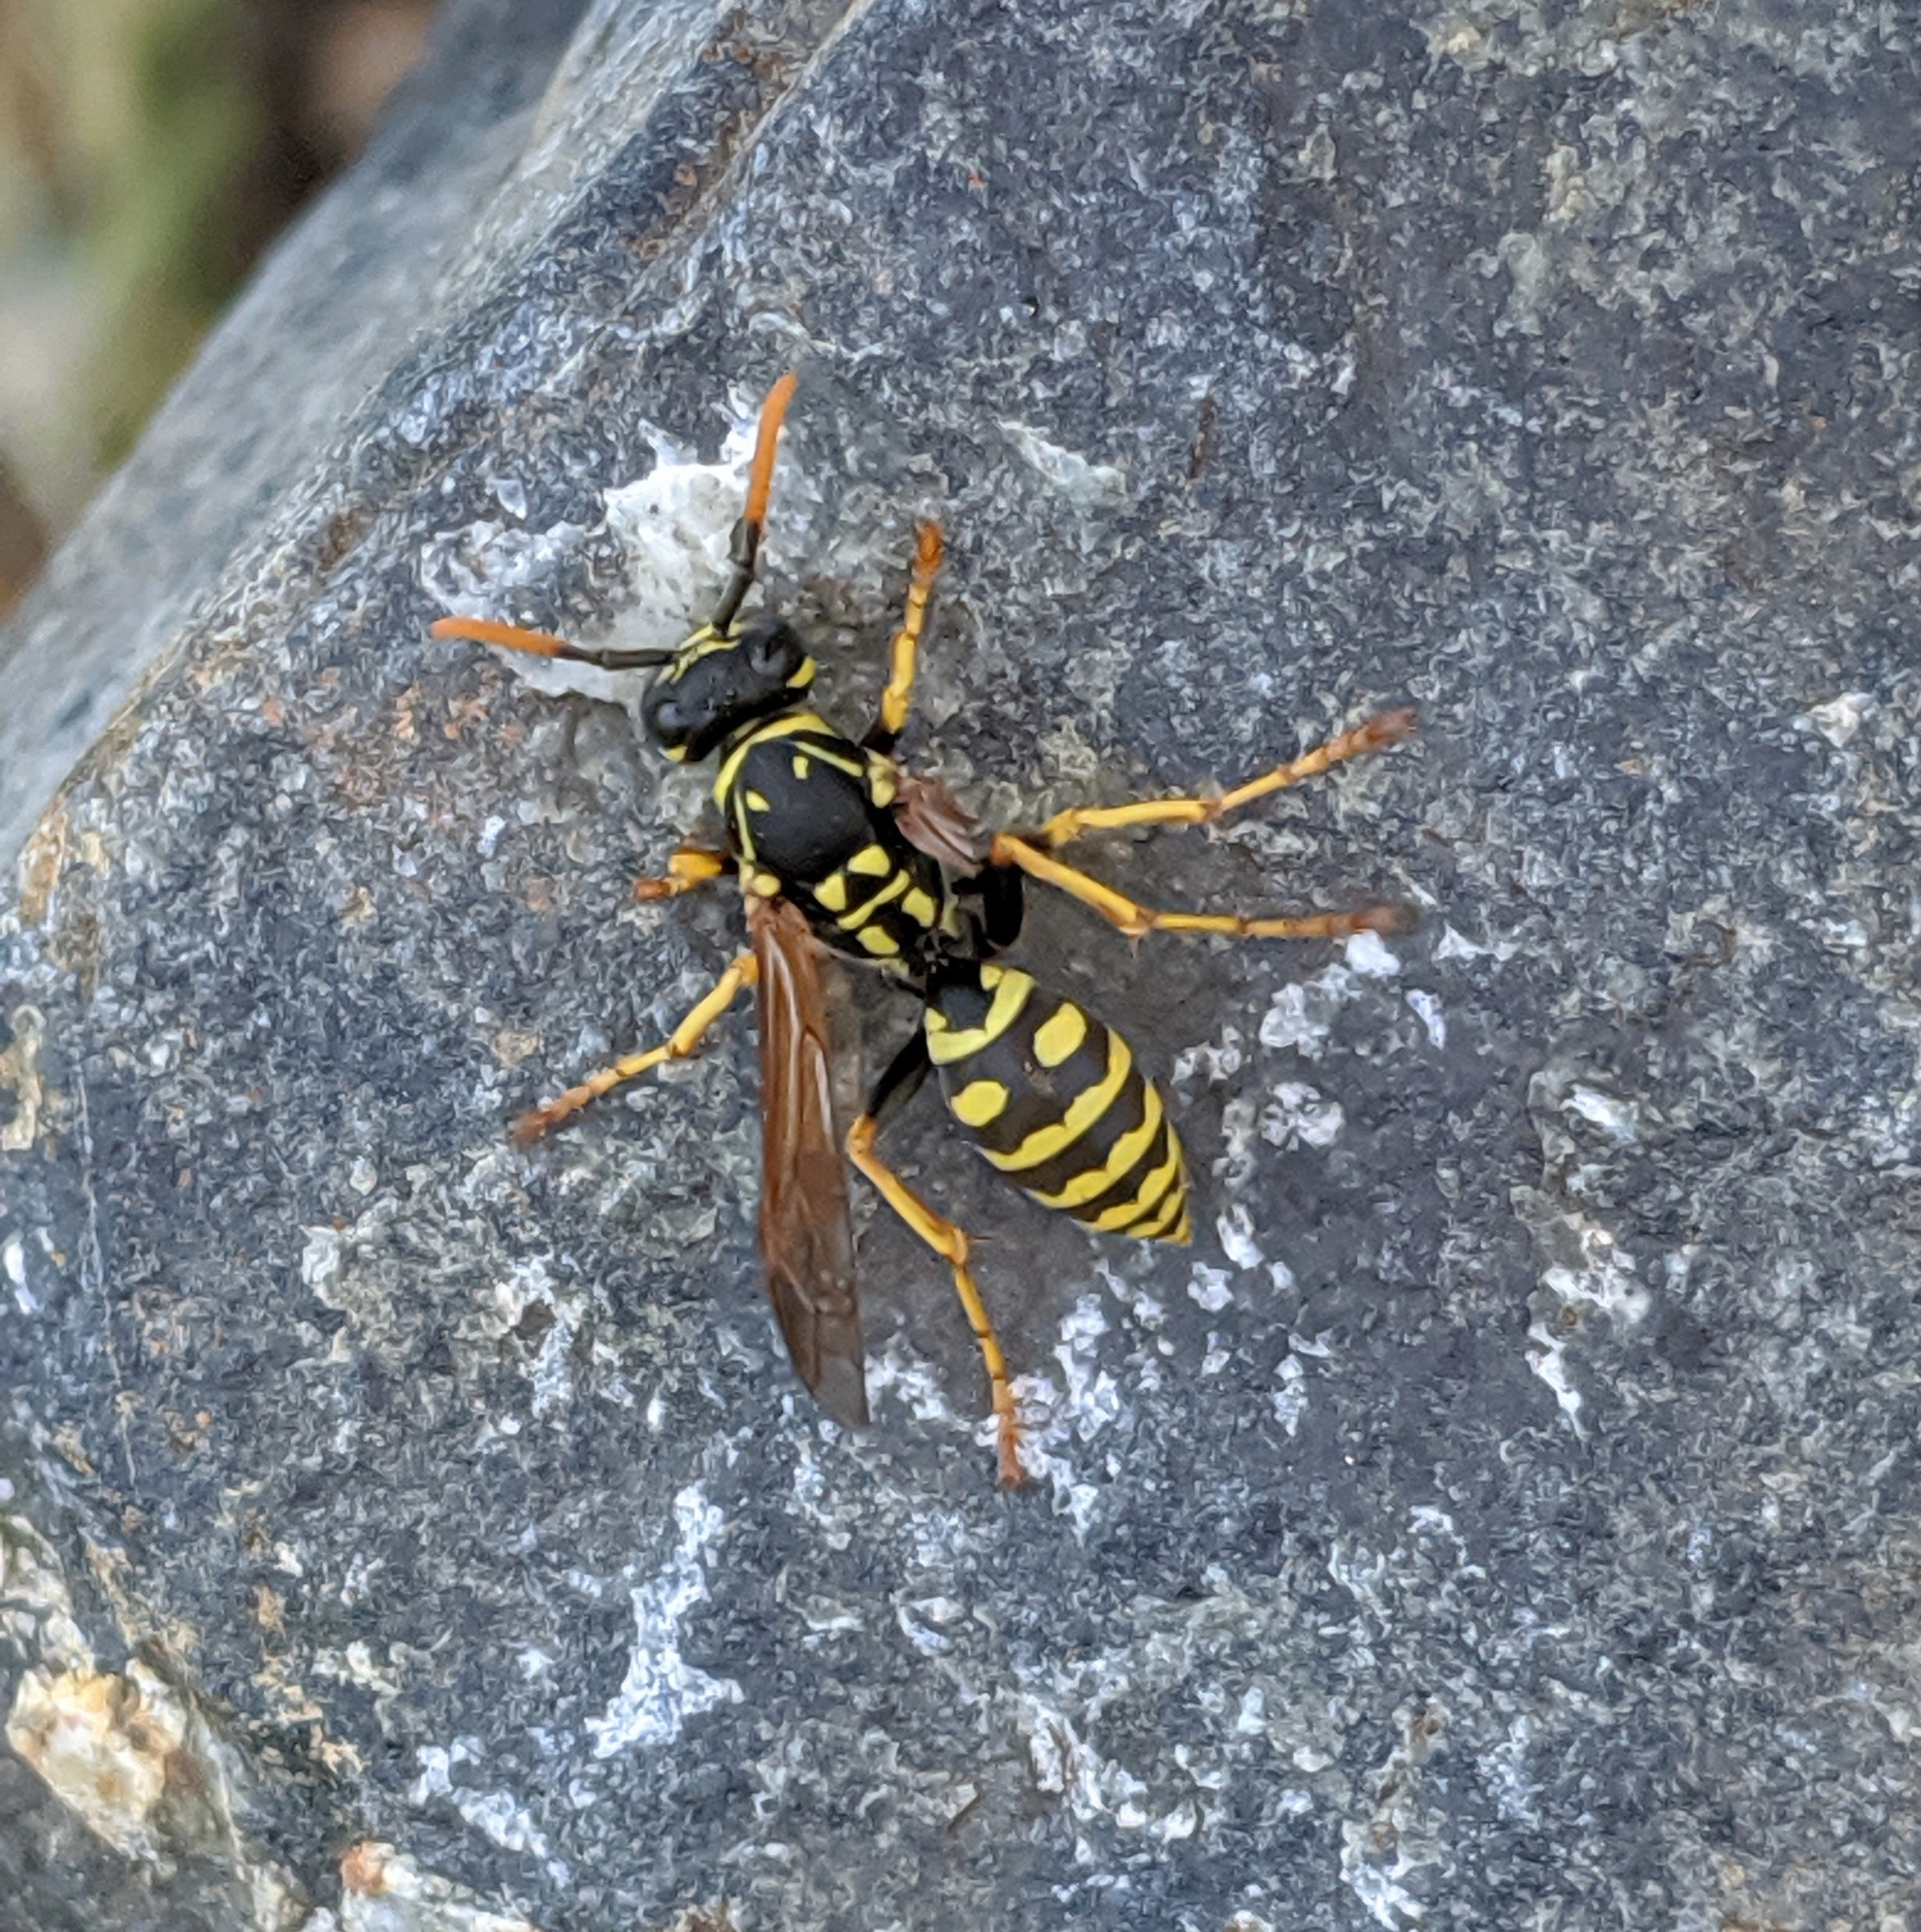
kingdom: Animalia
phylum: Arthropoda
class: Insecta
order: Hymenoptera
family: Eumenidae
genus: Polistes
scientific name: Polistes dominula
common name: Paper wasp
